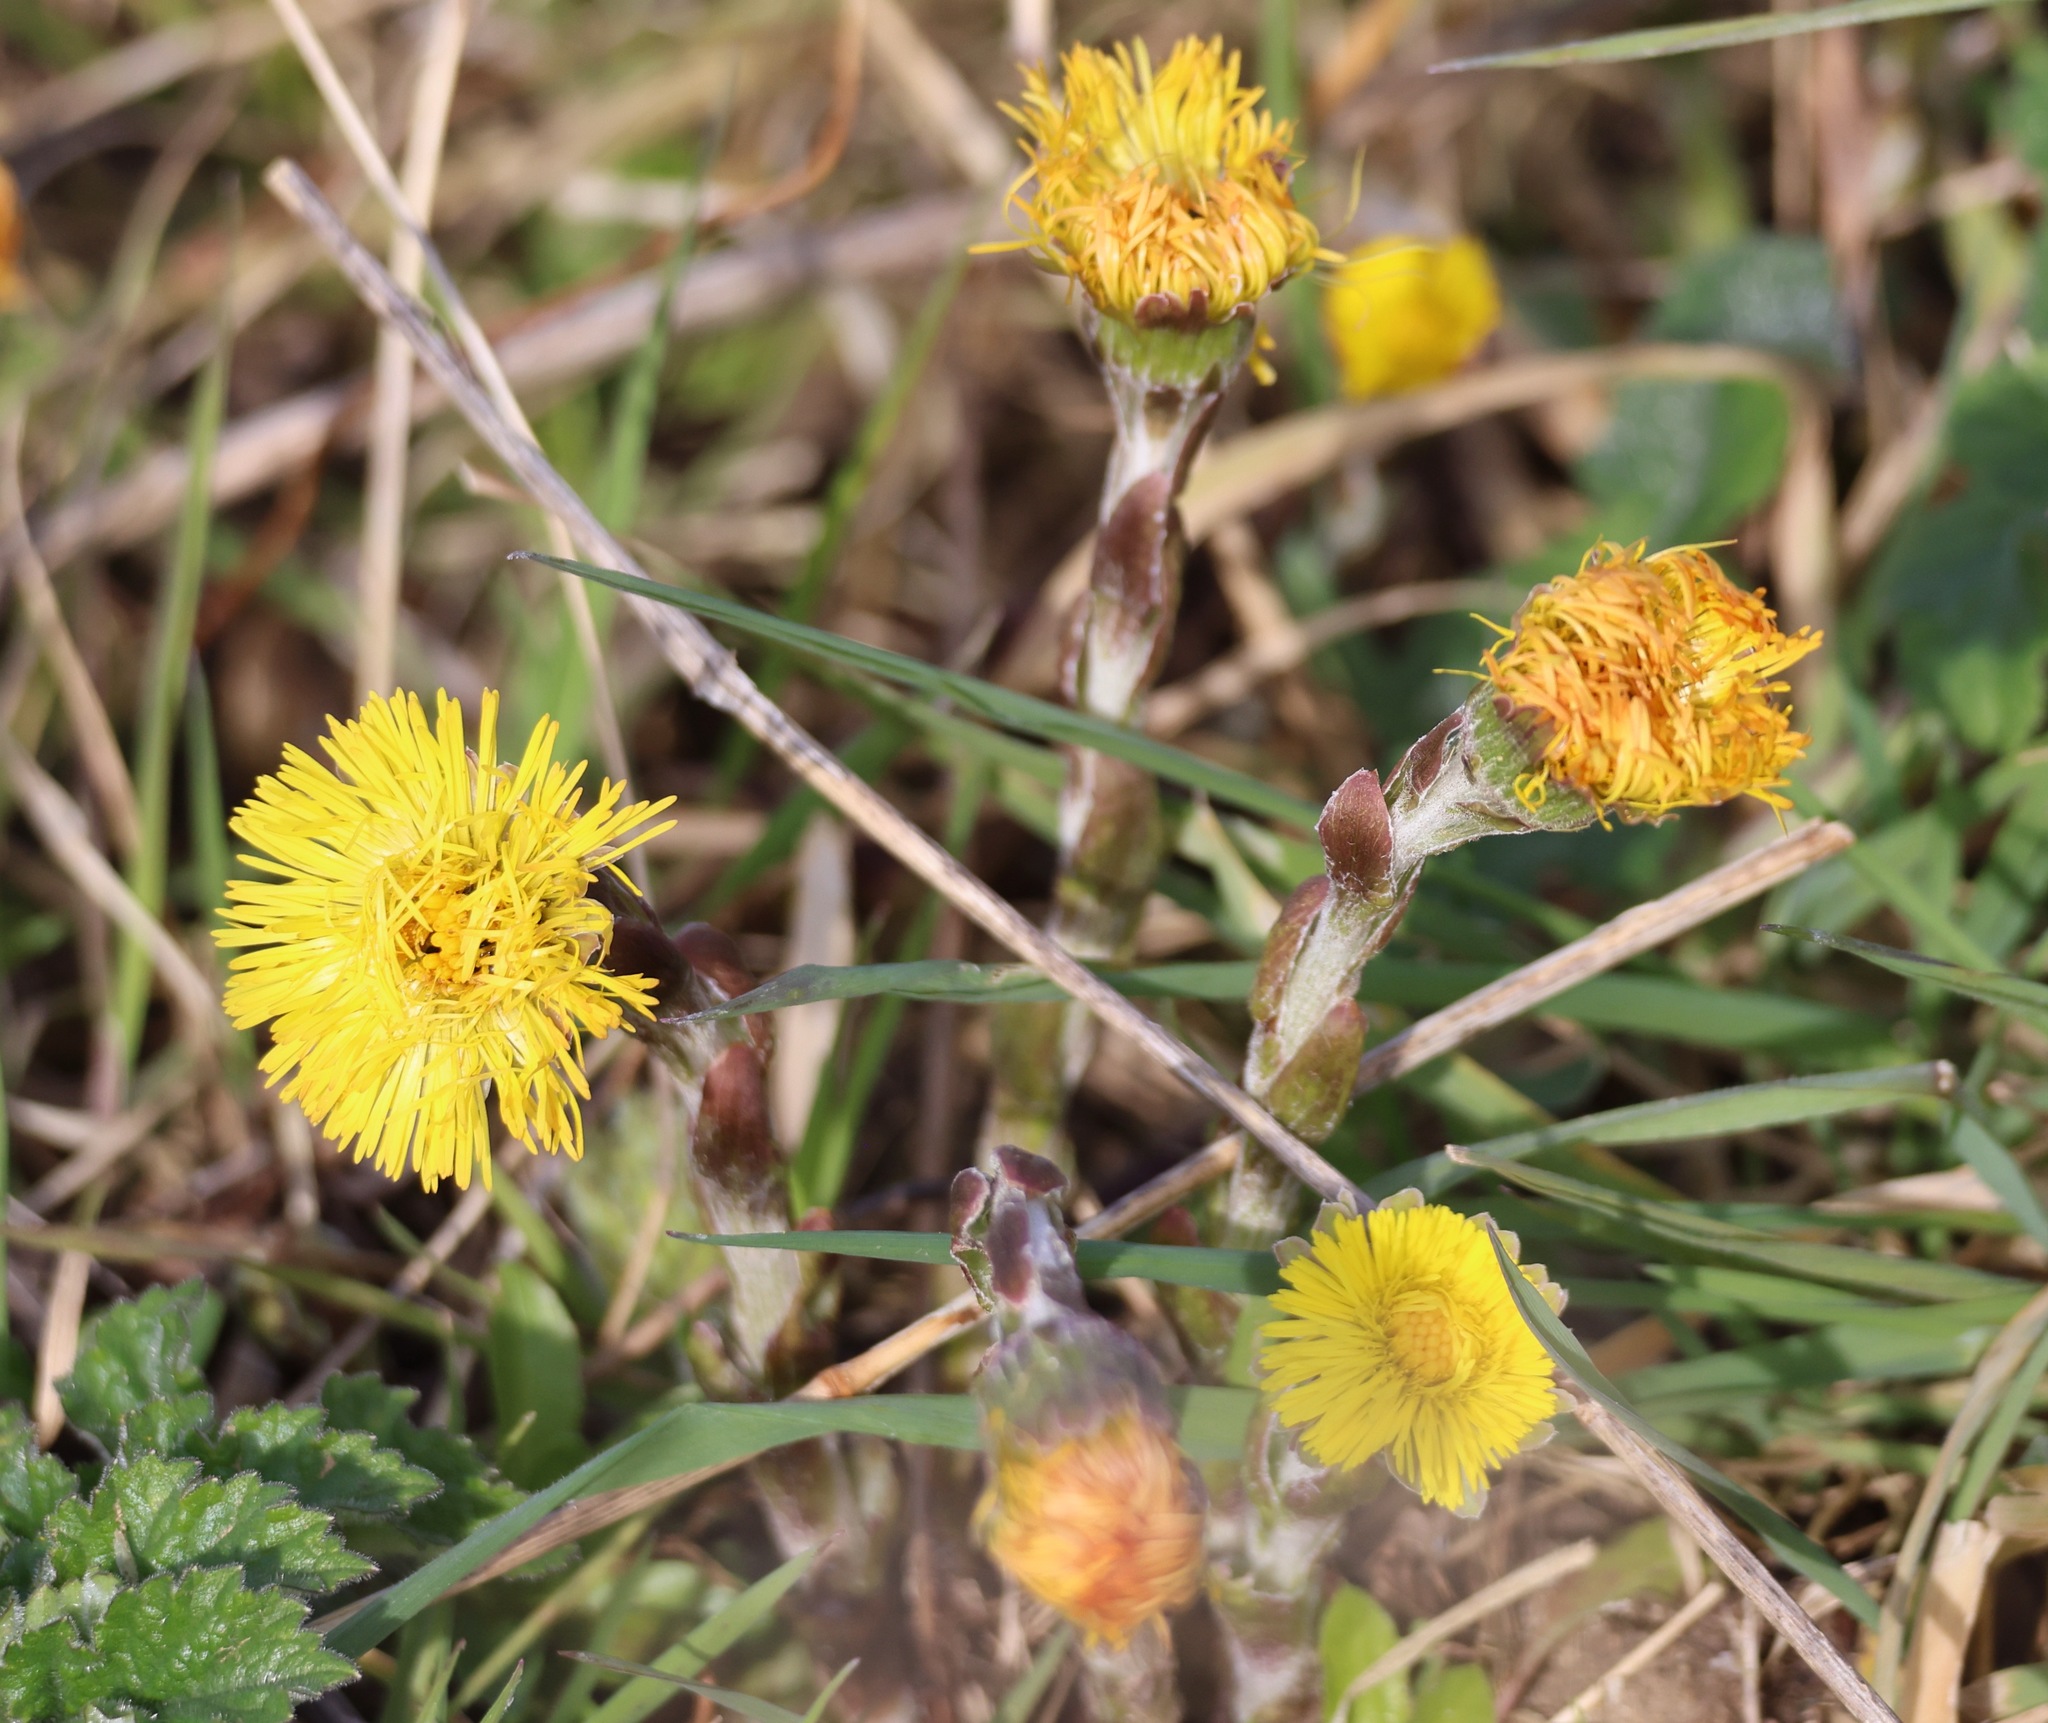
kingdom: Plantae
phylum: Tracheophyta
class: Magnoliopsida
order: Asterales
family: Asteraceae
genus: Tussilago
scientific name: Tussilago farfara
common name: Coltsfoot
